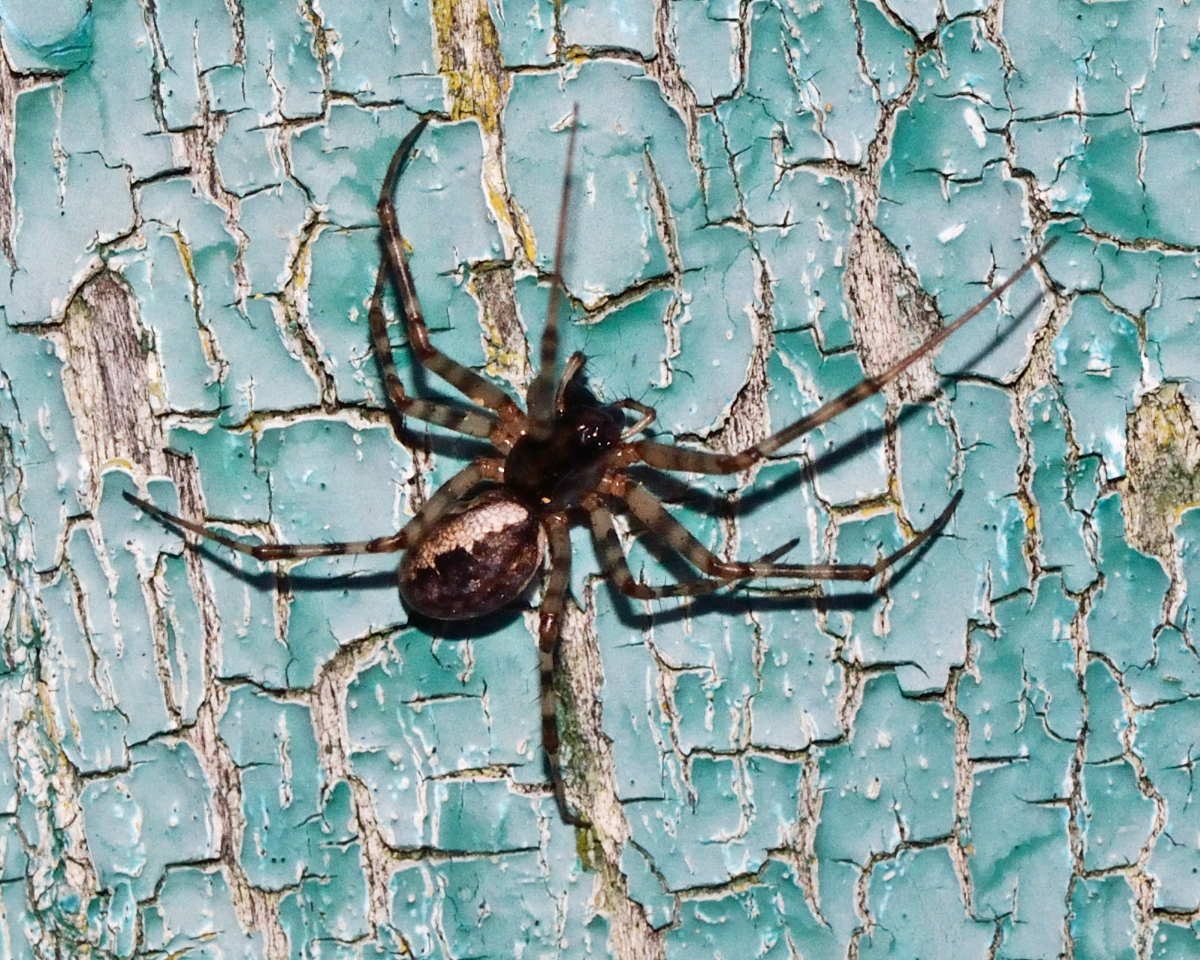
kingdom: Animalia
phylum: Arthropoda
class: Arachnida
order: Araneae
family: Linyphiidae
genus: Neriene
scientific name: Neriene montana
